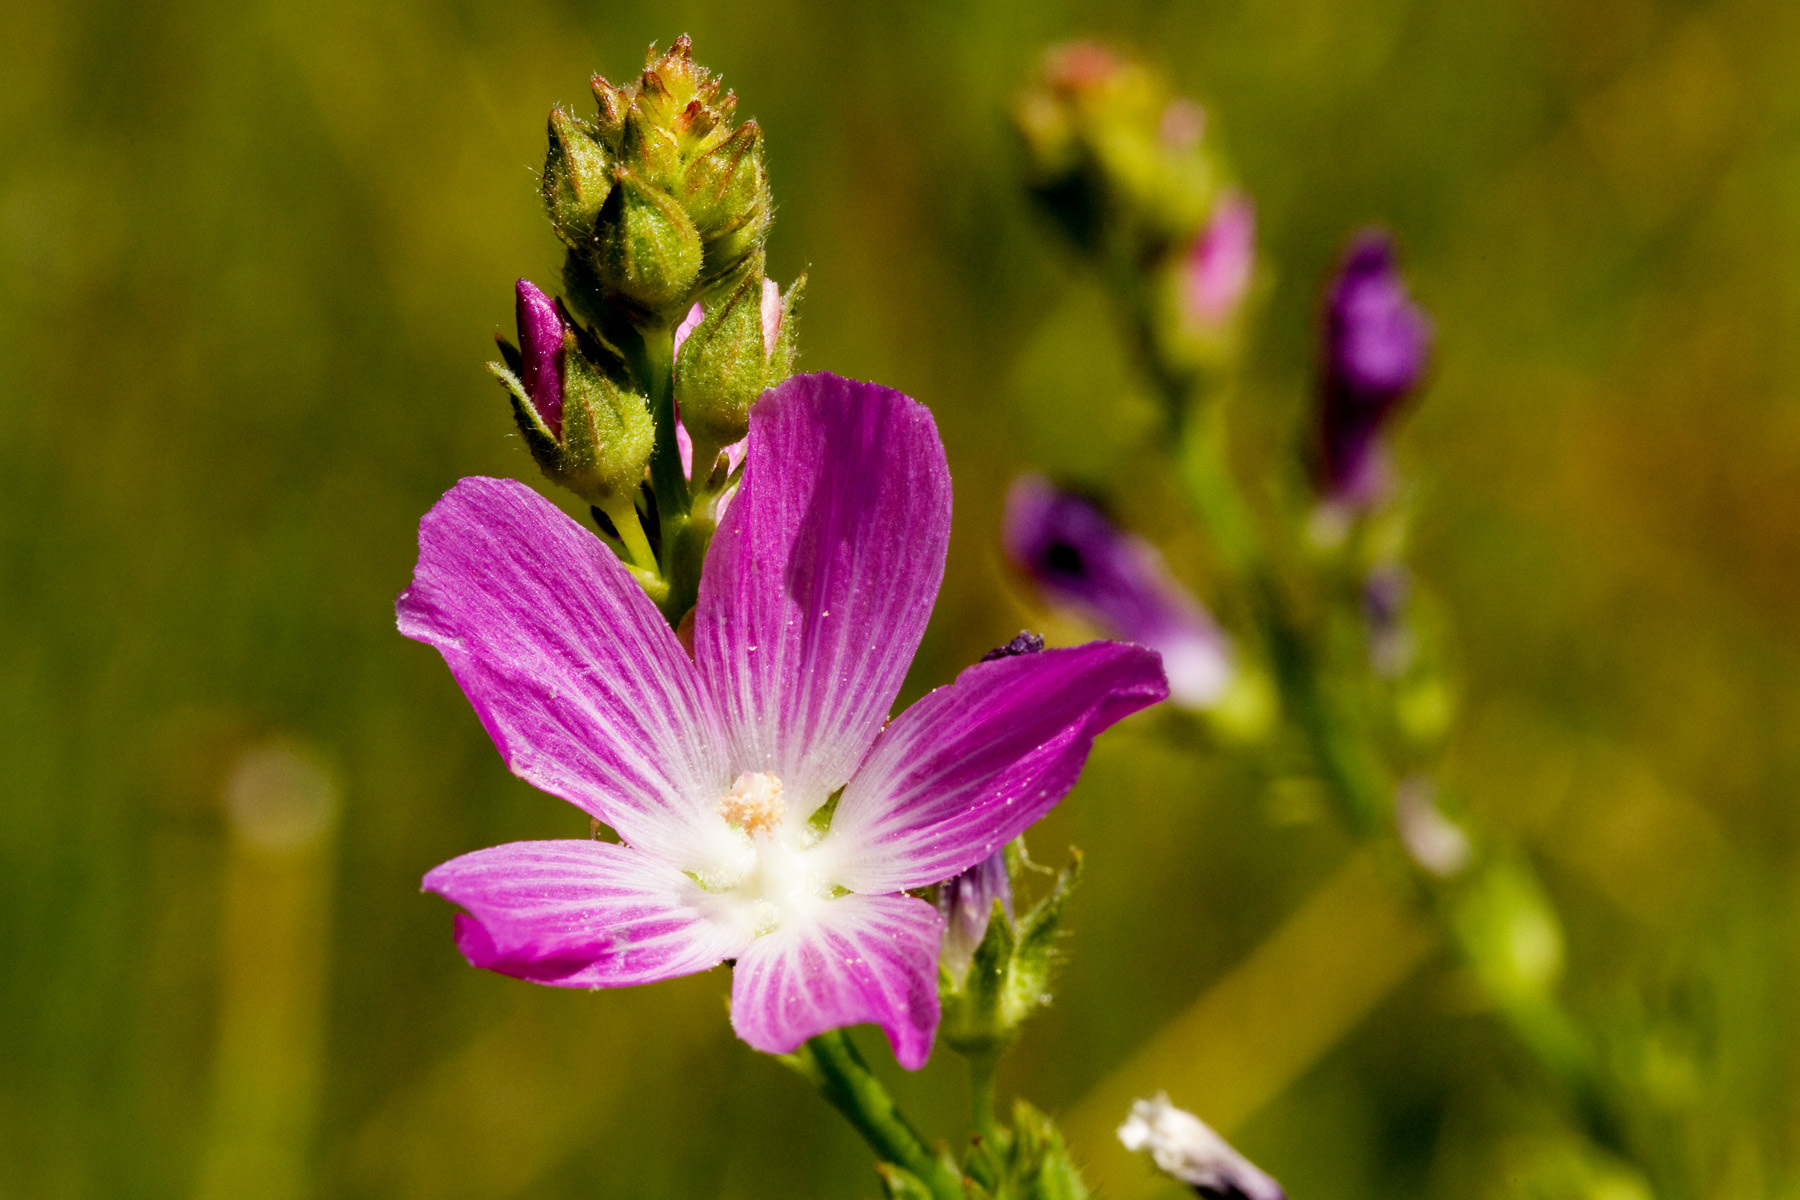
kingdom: Plantae
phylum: Tracheophyta
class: Magnoliopsida
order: Malvales
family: Malvaceae
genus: Sidalcea
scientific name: Sidalcea neomexicana
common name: New mexico checker
